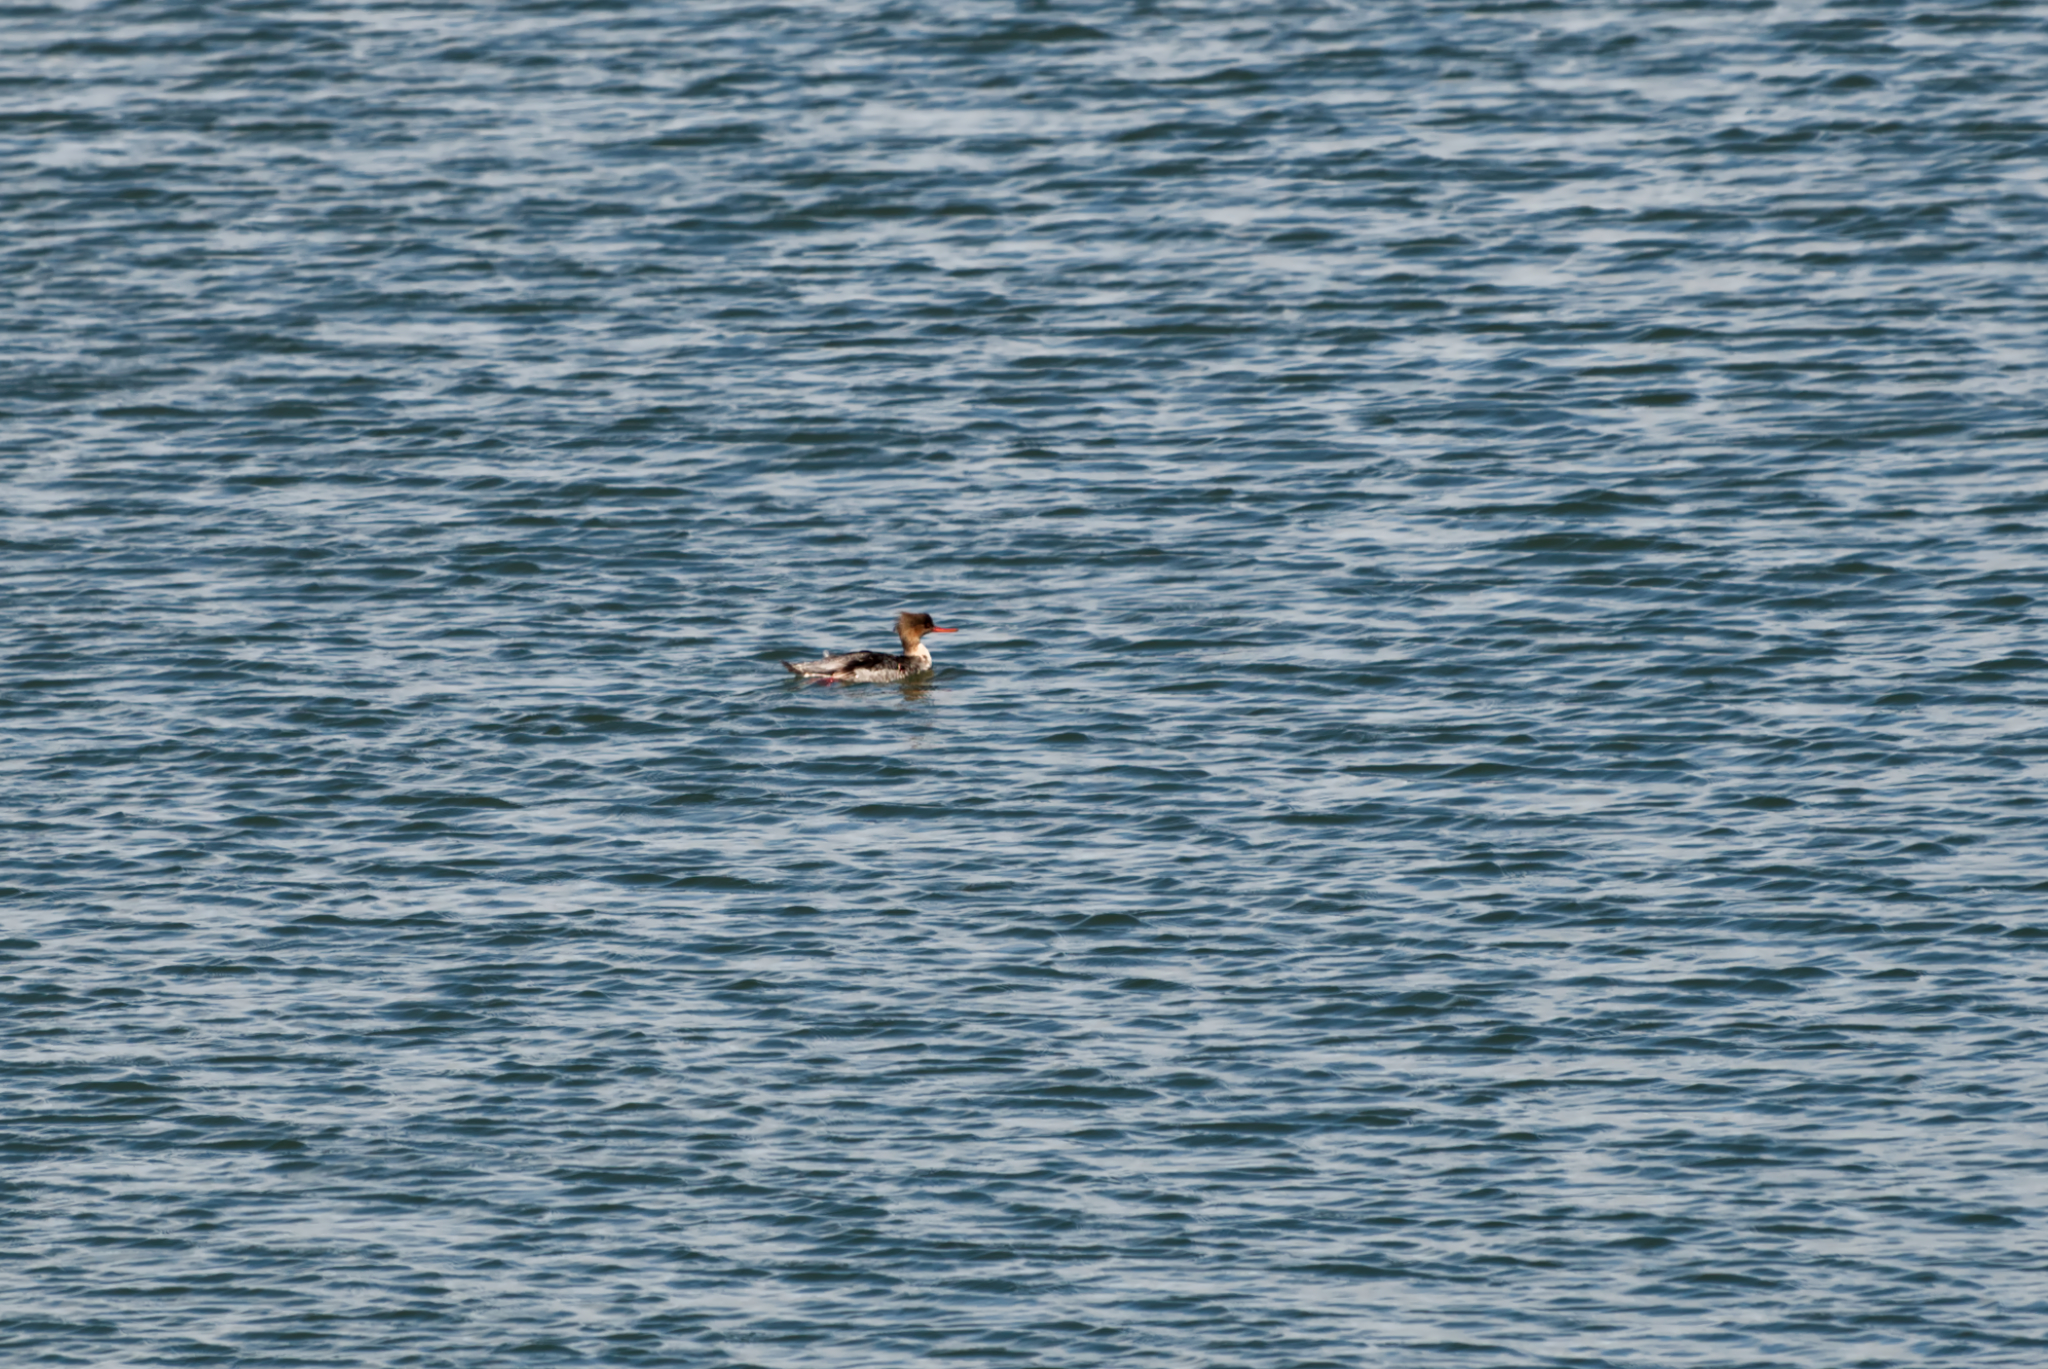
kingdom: Animalia
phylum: Chordata
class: Aves
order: Anseriformes
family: Anatidae
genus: Mergus
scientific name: Mergus serrator
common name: Red-breasted merganser
